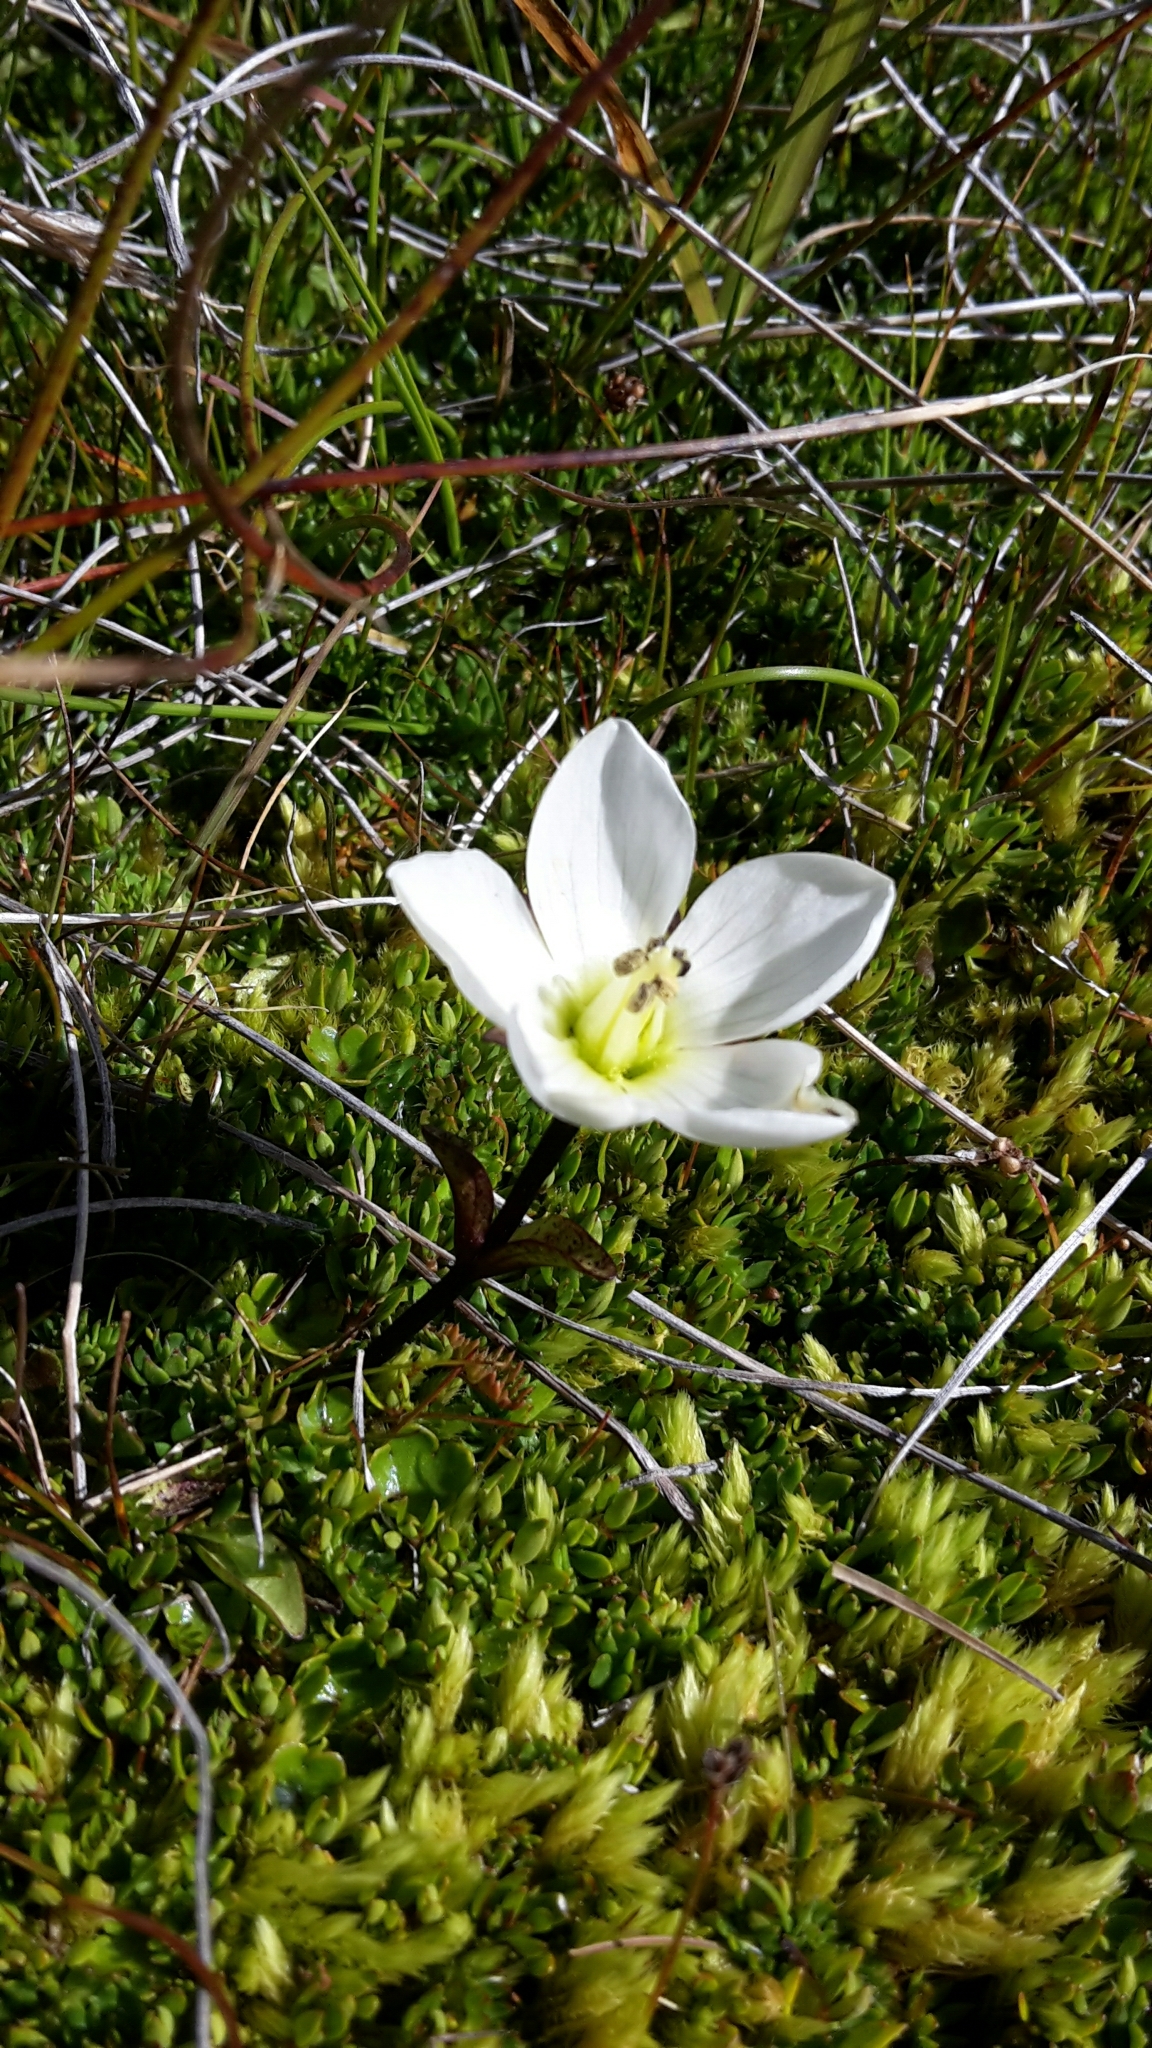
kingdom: Plantae
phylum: Tracheophyta
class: Magnoliopsida
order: Gentianales
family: Gentianaceae
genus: Gentianella
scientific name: Gentianella amabilis
